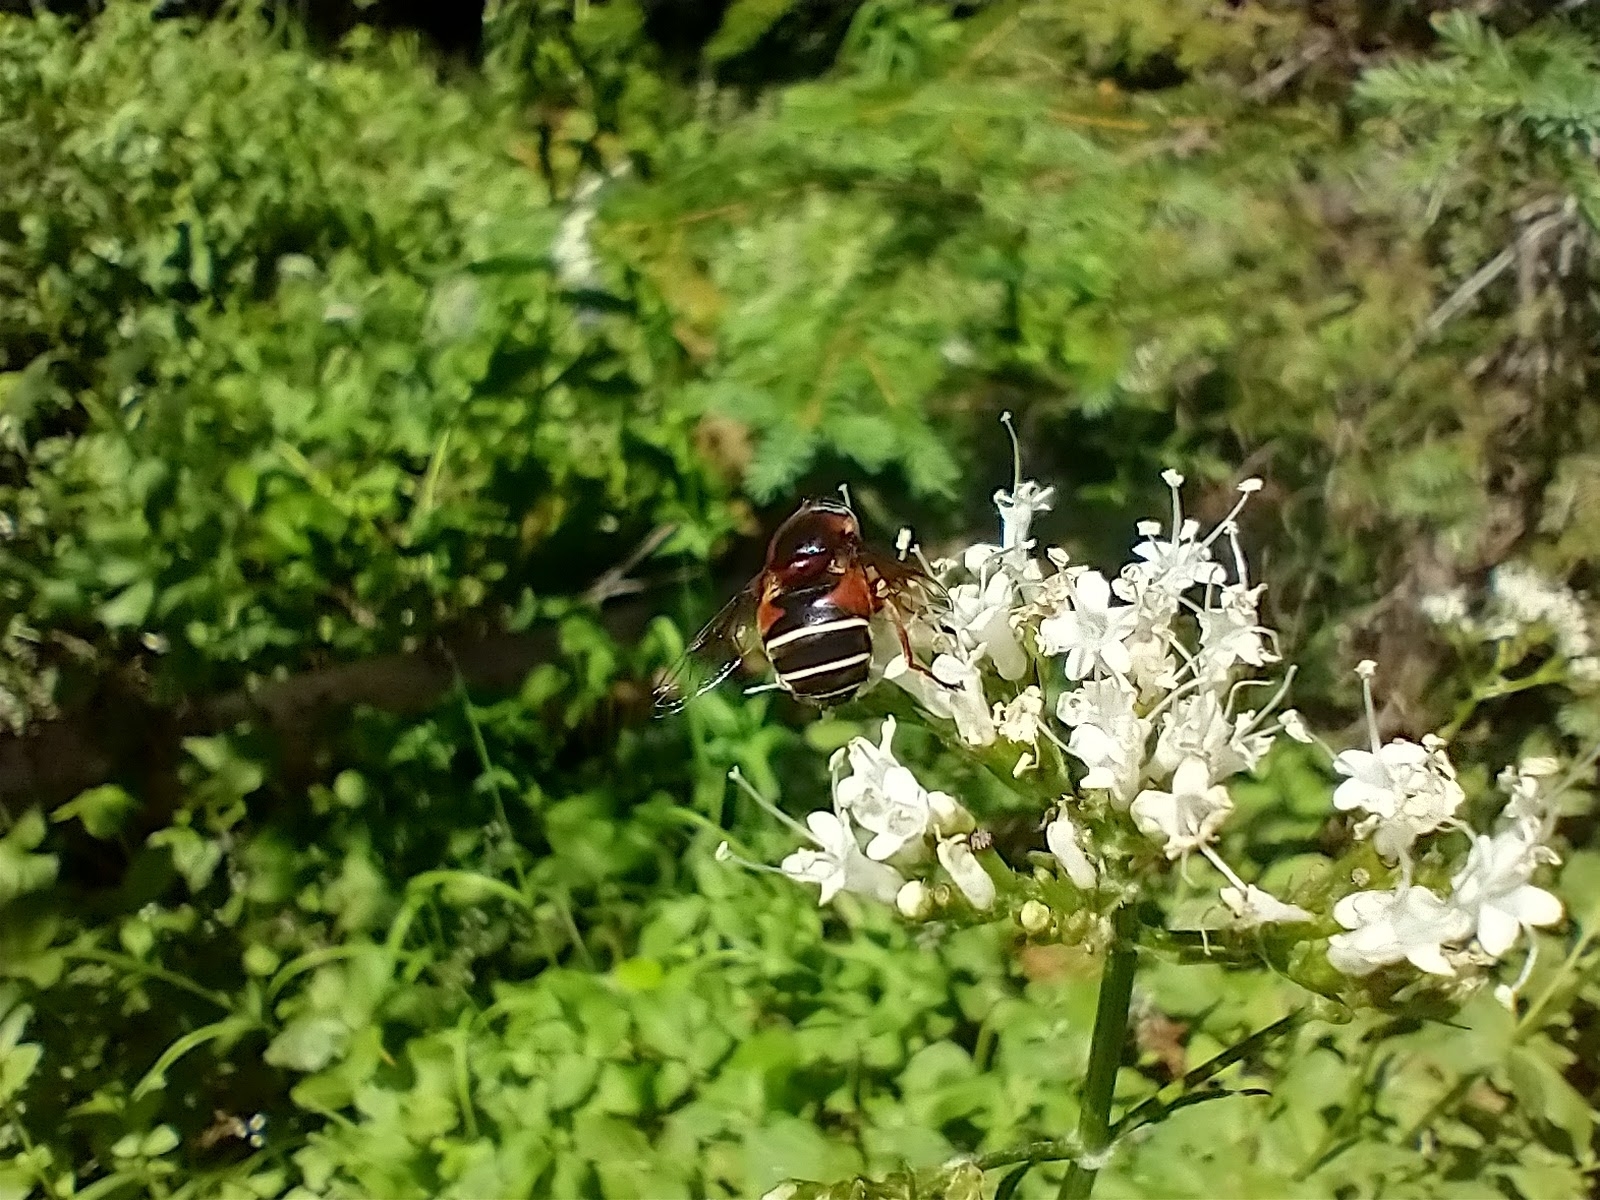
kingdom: Animalia
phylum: Arthropoda
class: Insecta
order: Diptera
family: Syrphidae
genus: Eristalis
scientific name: Eristalis cryptarum
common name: Bog hoverfly
